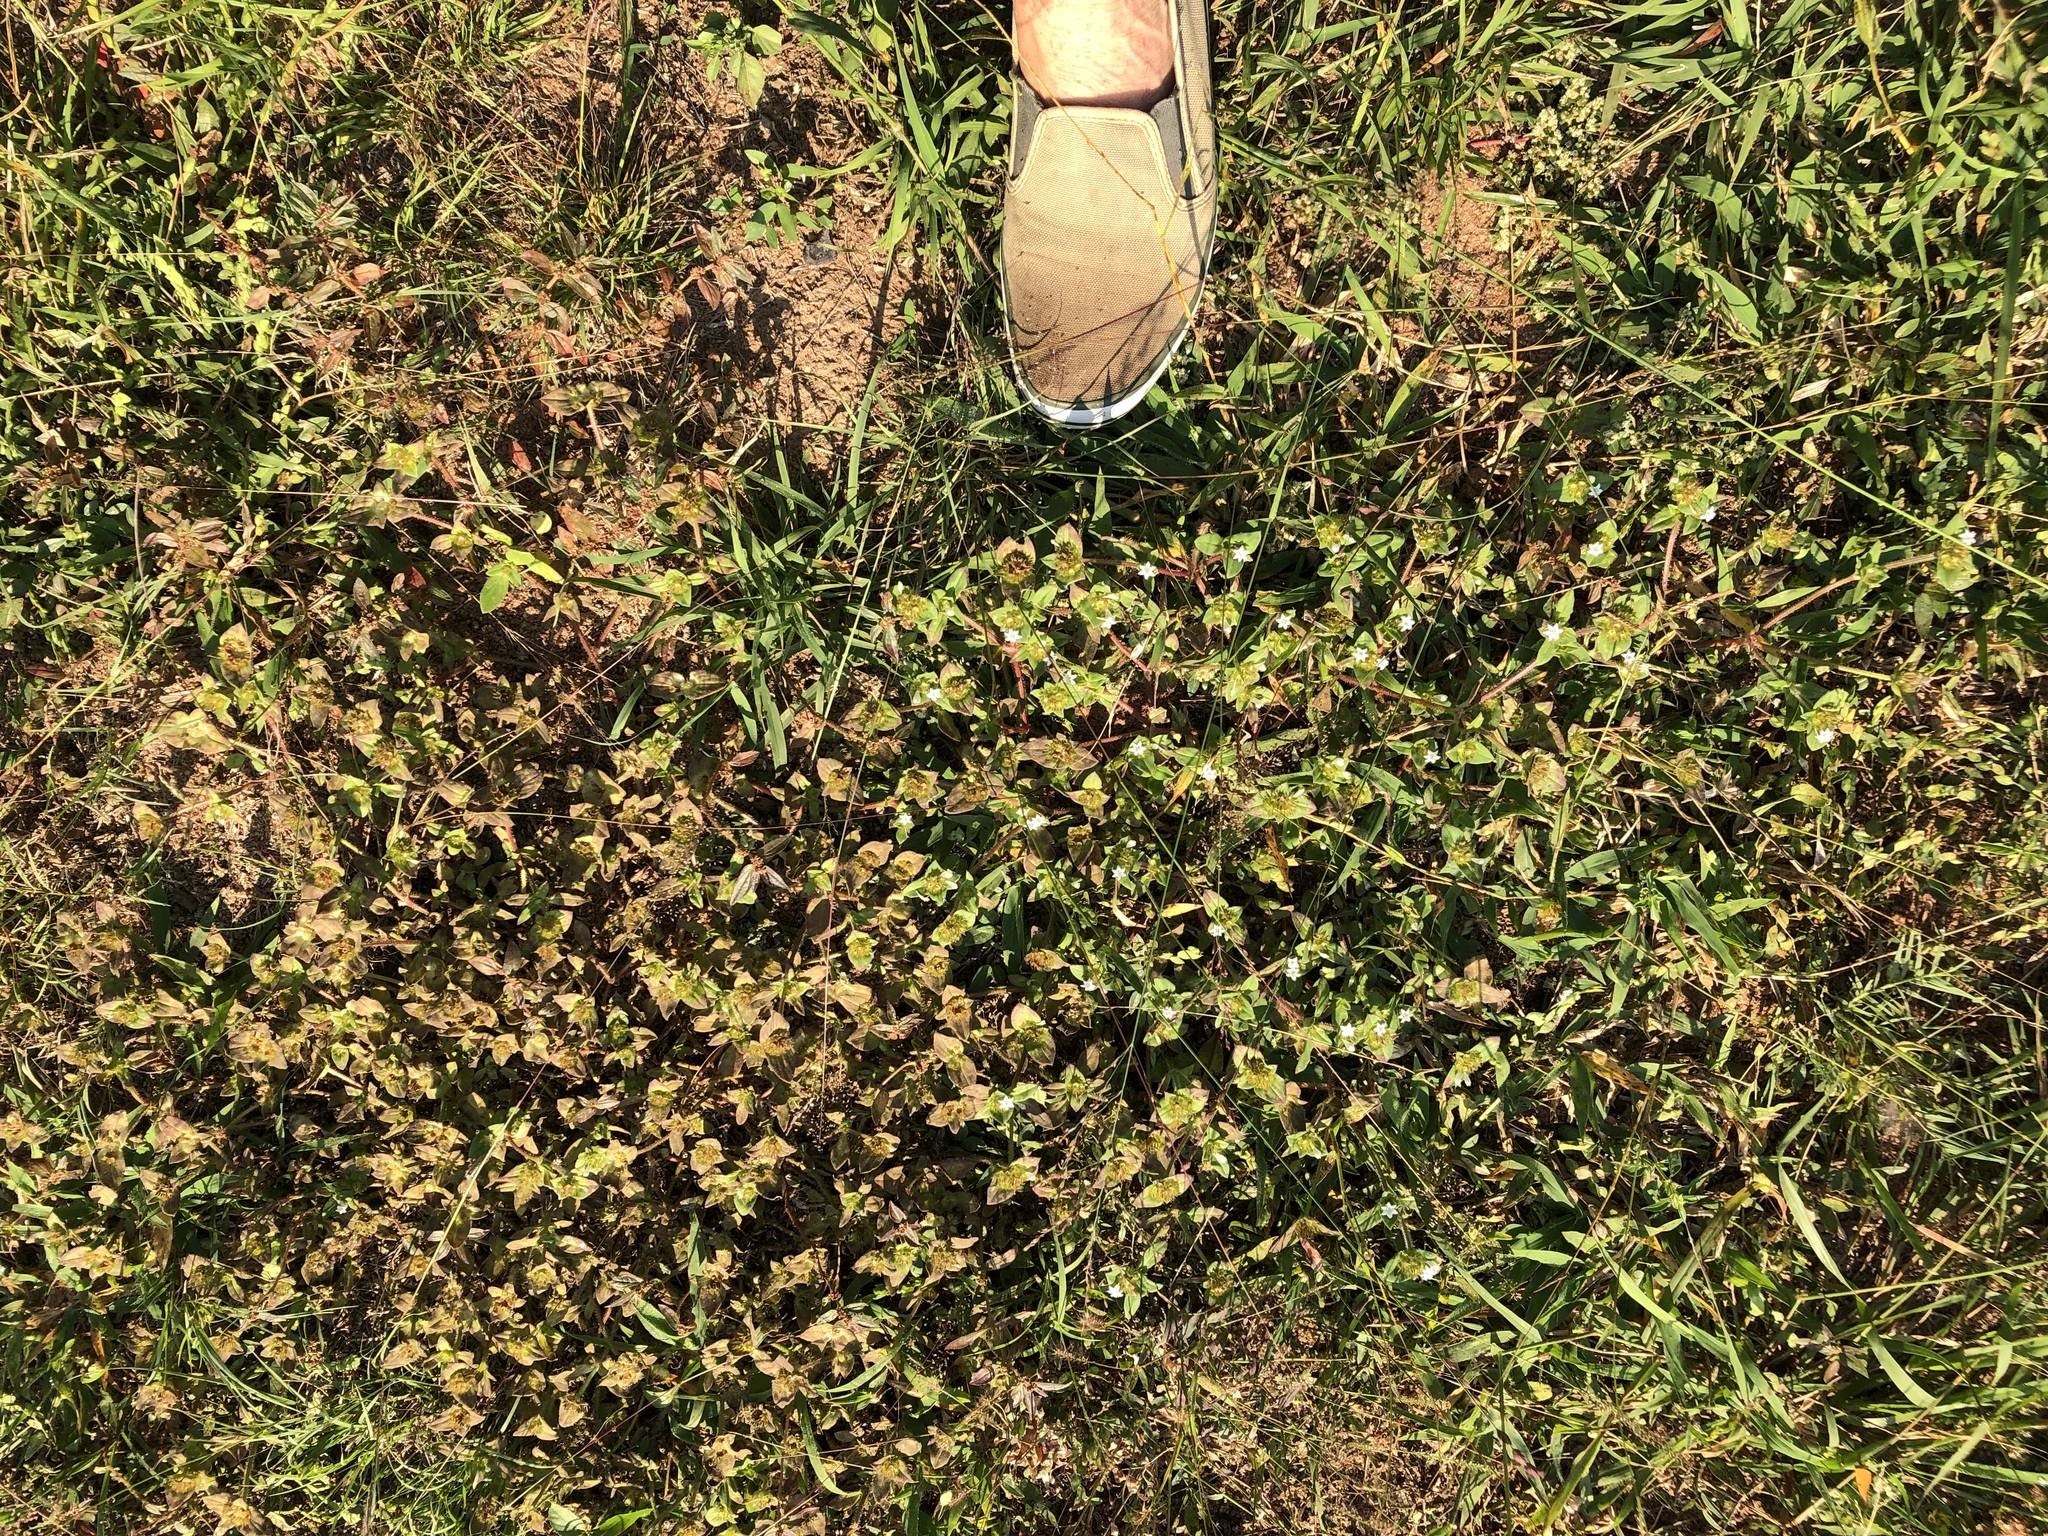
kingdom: Plantae
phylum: Tracheophyta
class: Magnoliopsida
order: Gentianales
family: Rubiaceae
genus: Richardia
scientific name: Richardia brasiliensis
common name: Tropical mexican clover
